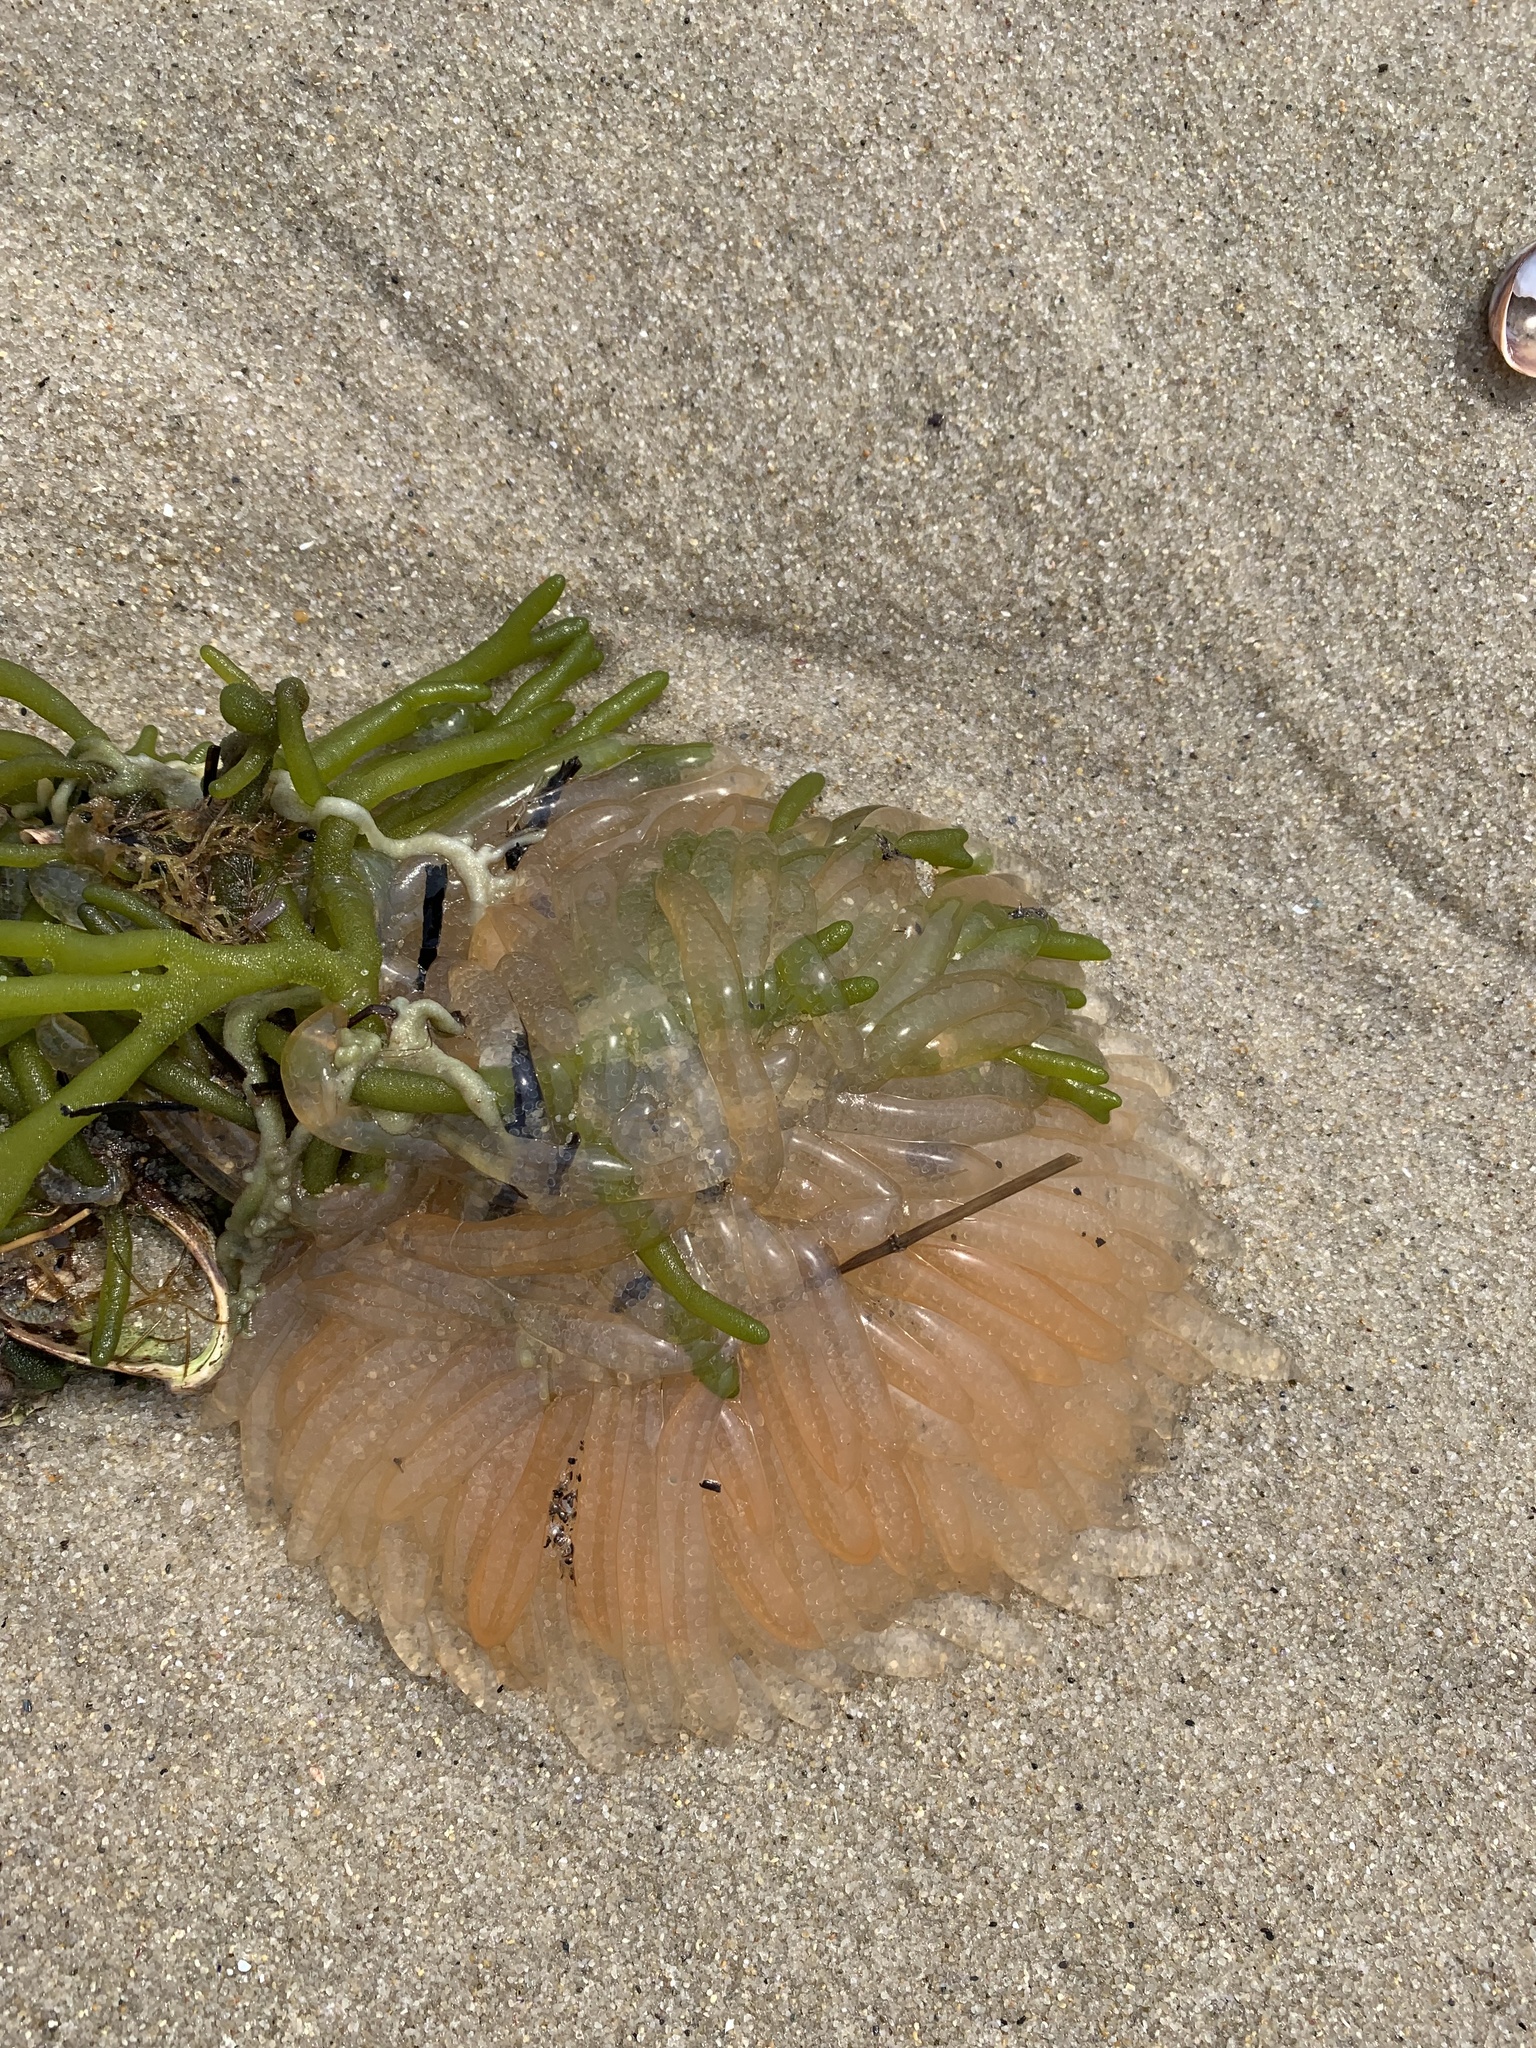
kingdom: Animalia
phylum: Mollusca
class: Cephalopoda
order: Myopsida
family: Loliginidae
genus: Doryteuthis
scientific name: Doryteuthis pealeii
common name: Long-finned inshore squid
